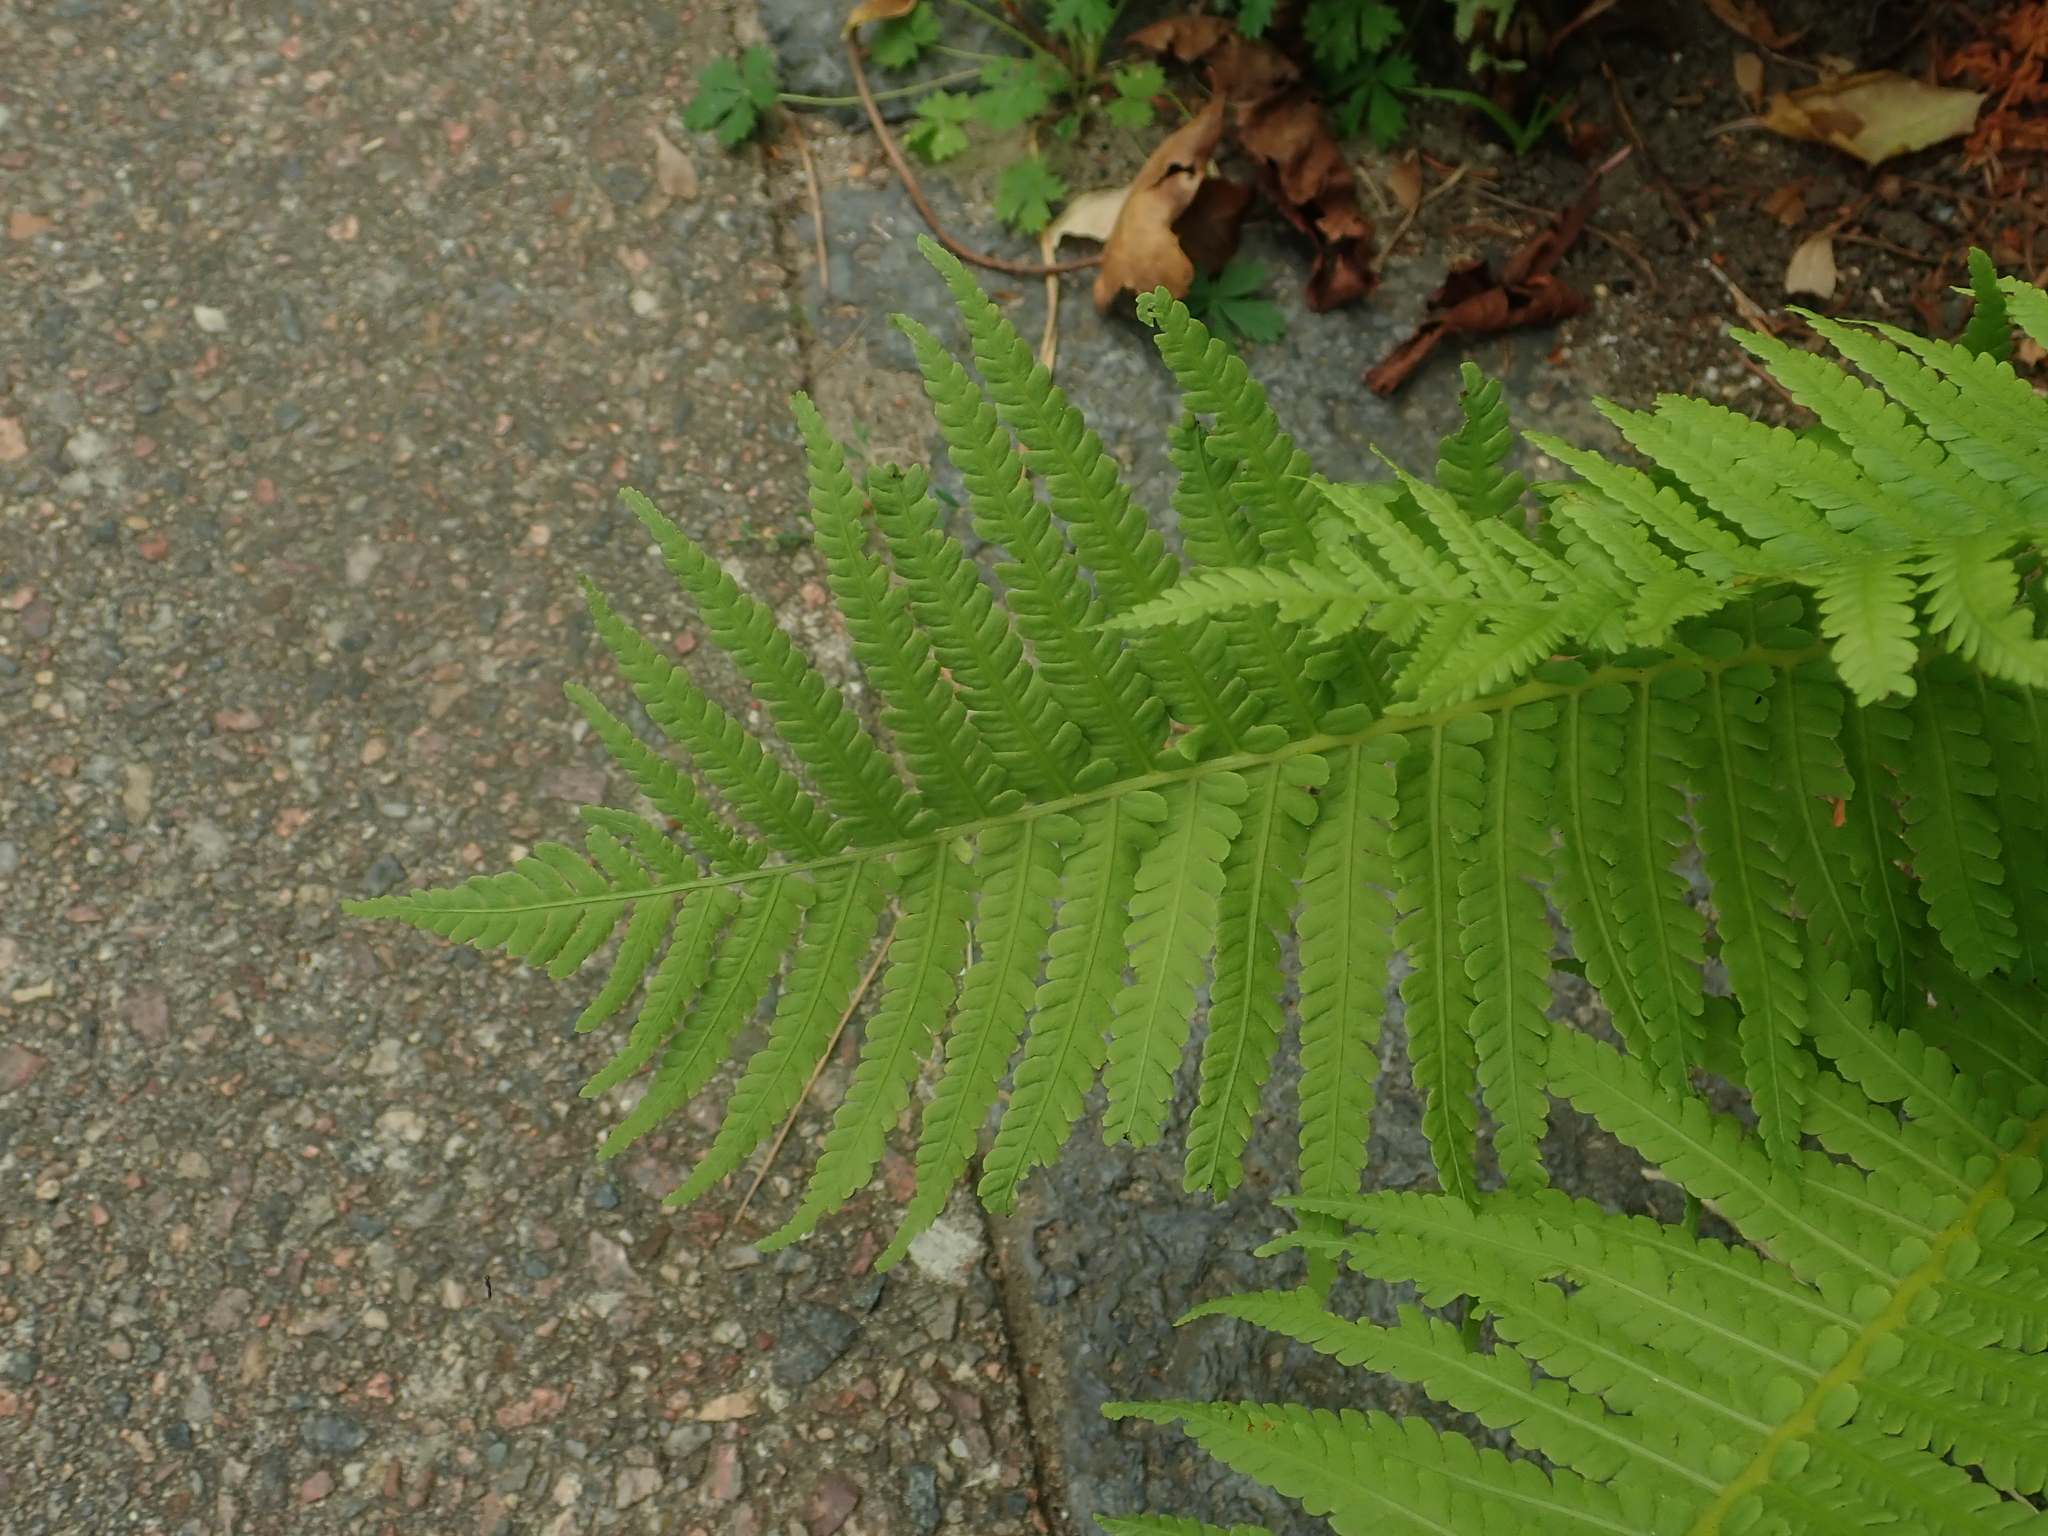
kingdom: Plantae
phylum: Tracheophyta
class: Polypodiopsida
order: Polypodiales
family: Onocleaceae
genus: Matteuccia
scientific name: Matteuccia struthiopteris
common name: Ostrich fern
